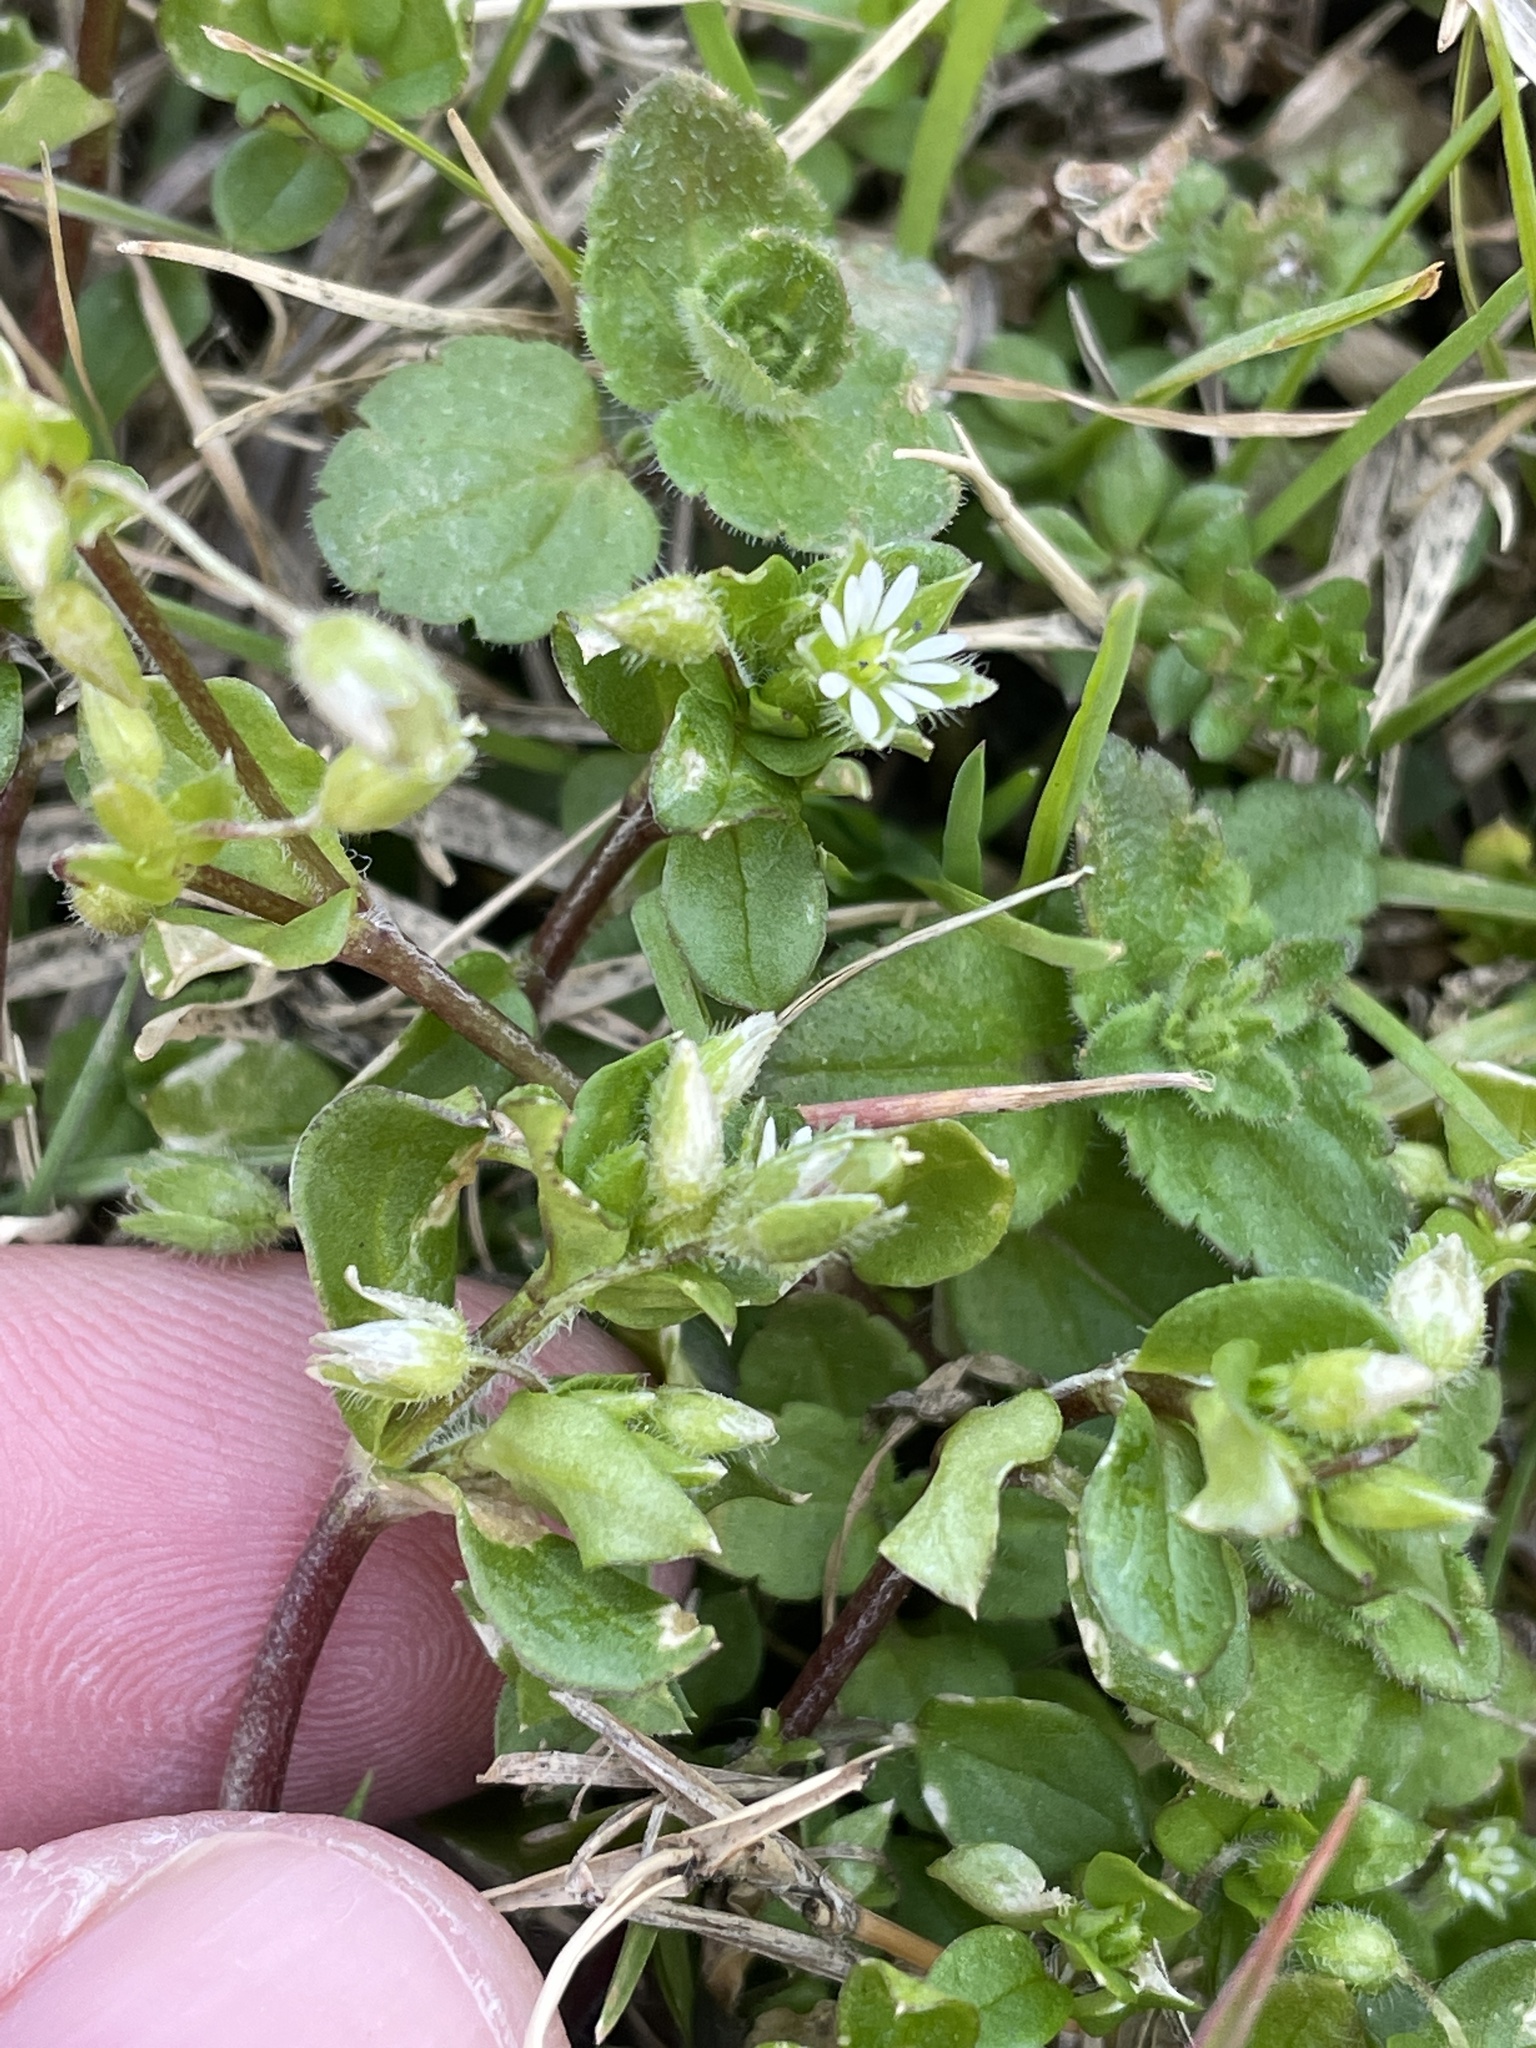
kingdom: Plantae
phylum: Tracheophyta
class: Magnoliopsida
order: Caryophyllales
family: Caryophyllaceae
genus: Stellaria
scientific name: Stellaria media
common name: Common chickweed
